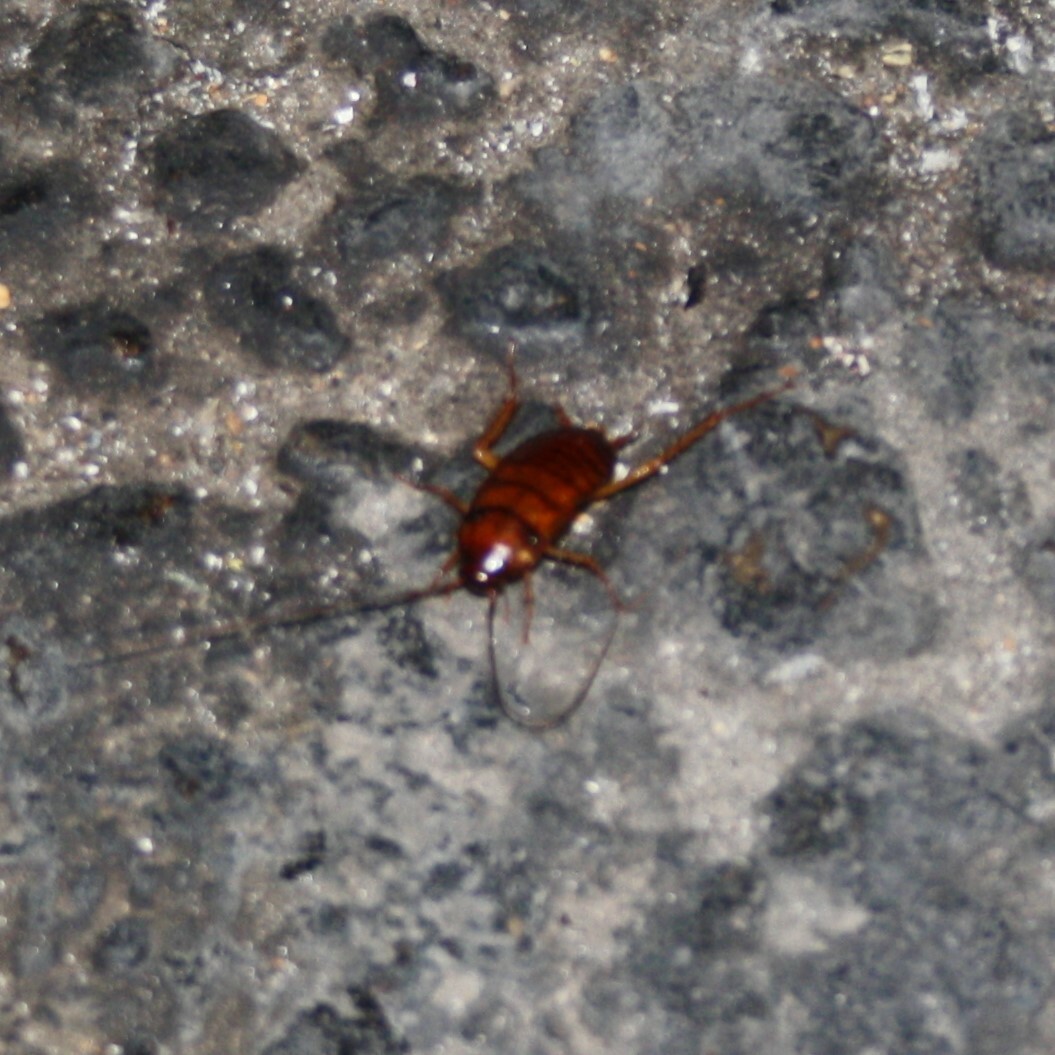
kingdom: Animalia
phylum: Arthropoda
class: Insecta
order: Blattodea
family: Blattidae
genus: Periplaneta
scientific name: Periplaneta americana
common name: American cockroach
